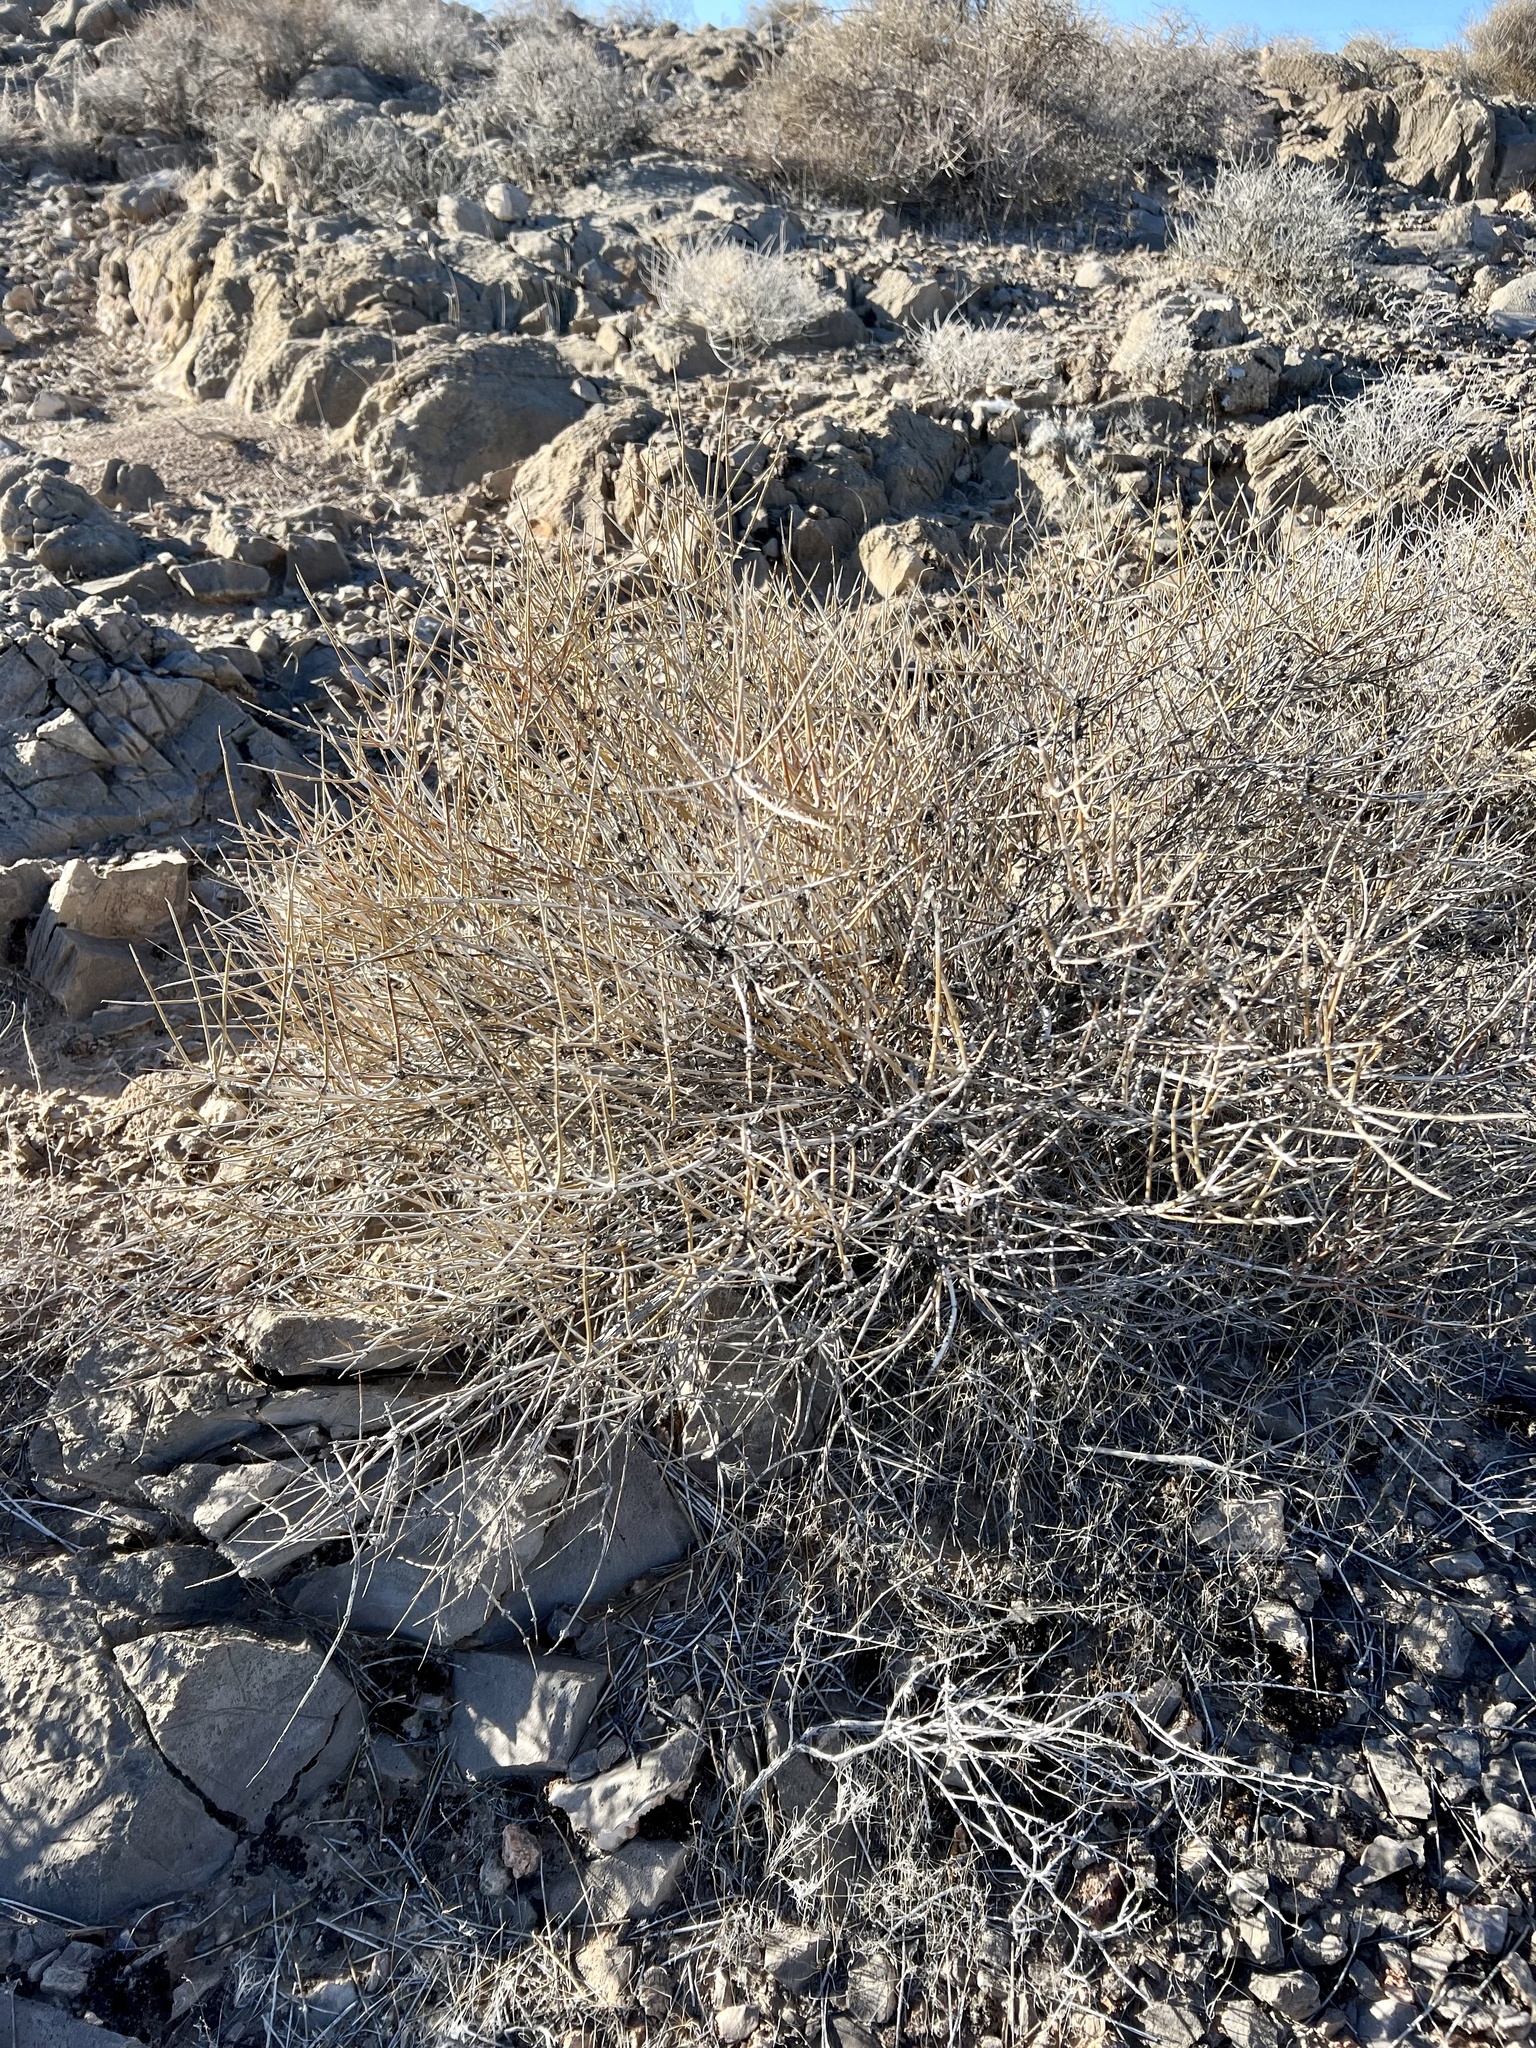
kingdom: Plantae
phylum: Tracheophyta
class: Gnetopsida
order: Ephedrales
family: Ephedraceae
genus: Ephedra
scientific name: Ephedra nevadensis
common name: Gray ephedra
